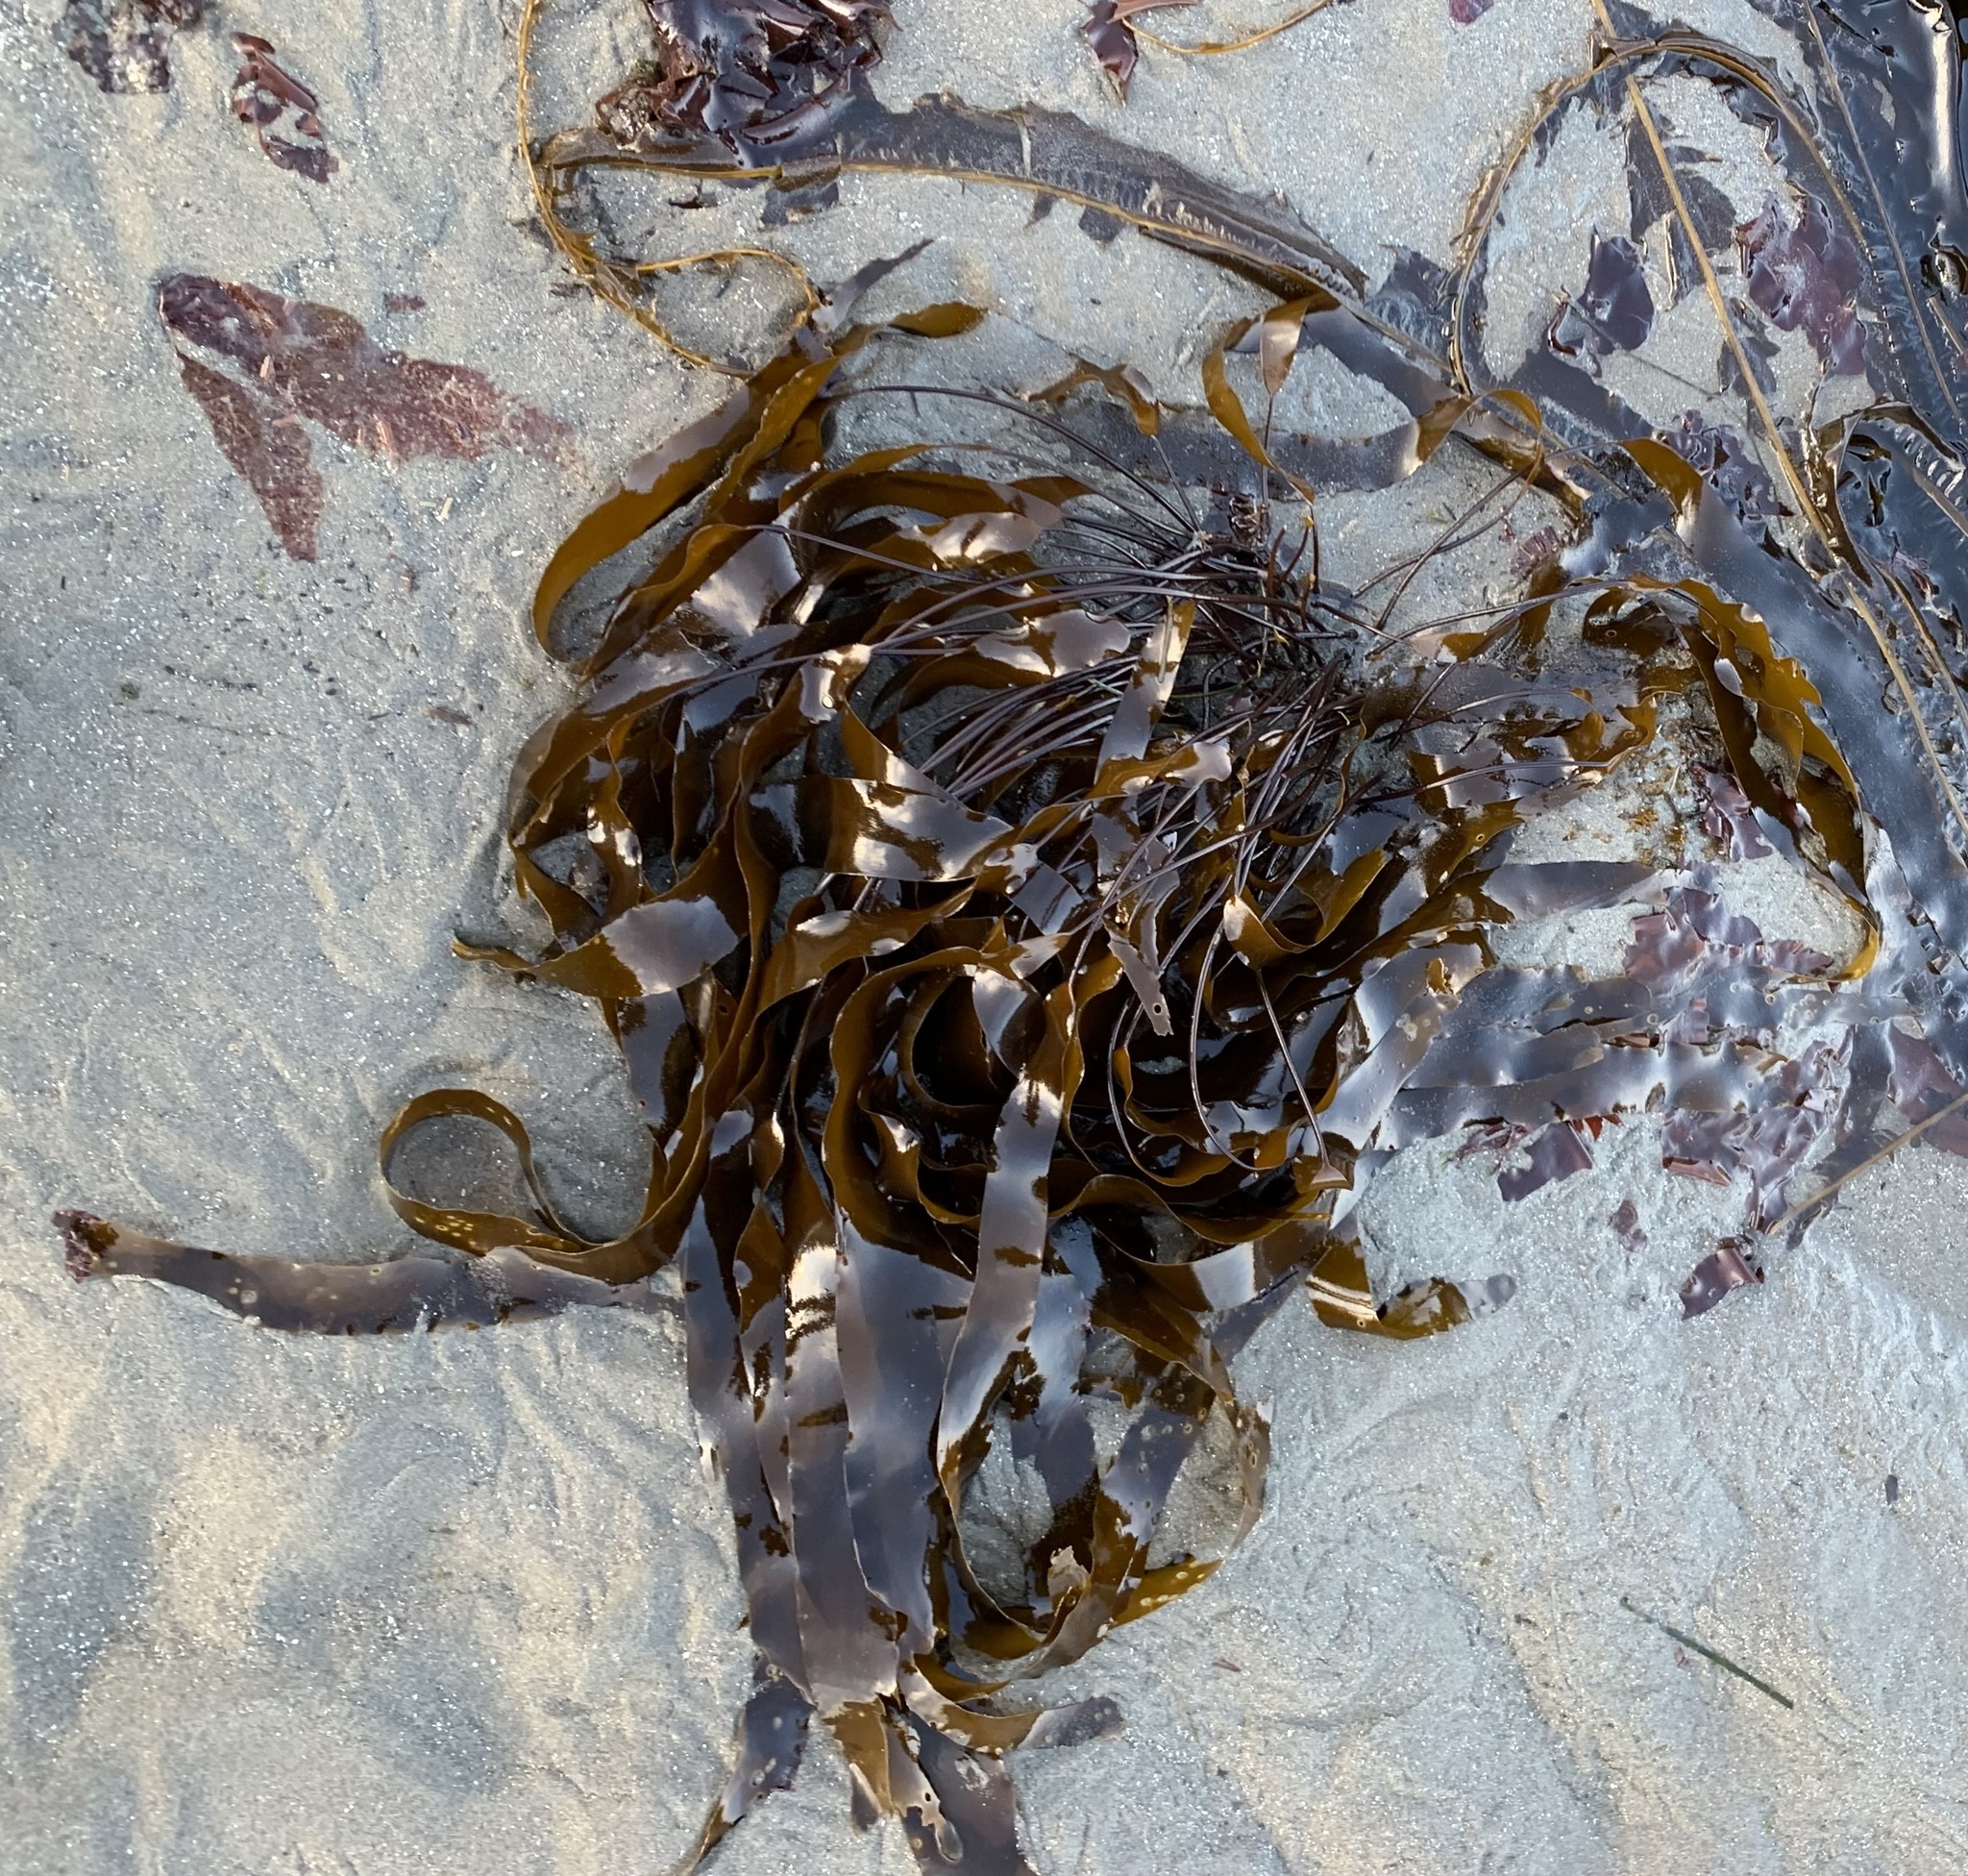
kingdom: Chromista
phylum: Ochrophyta
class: Phaeophyceae
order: Laminariales
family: Laminariaceae
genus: Laminaria
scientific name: Laminaria sinclairii
